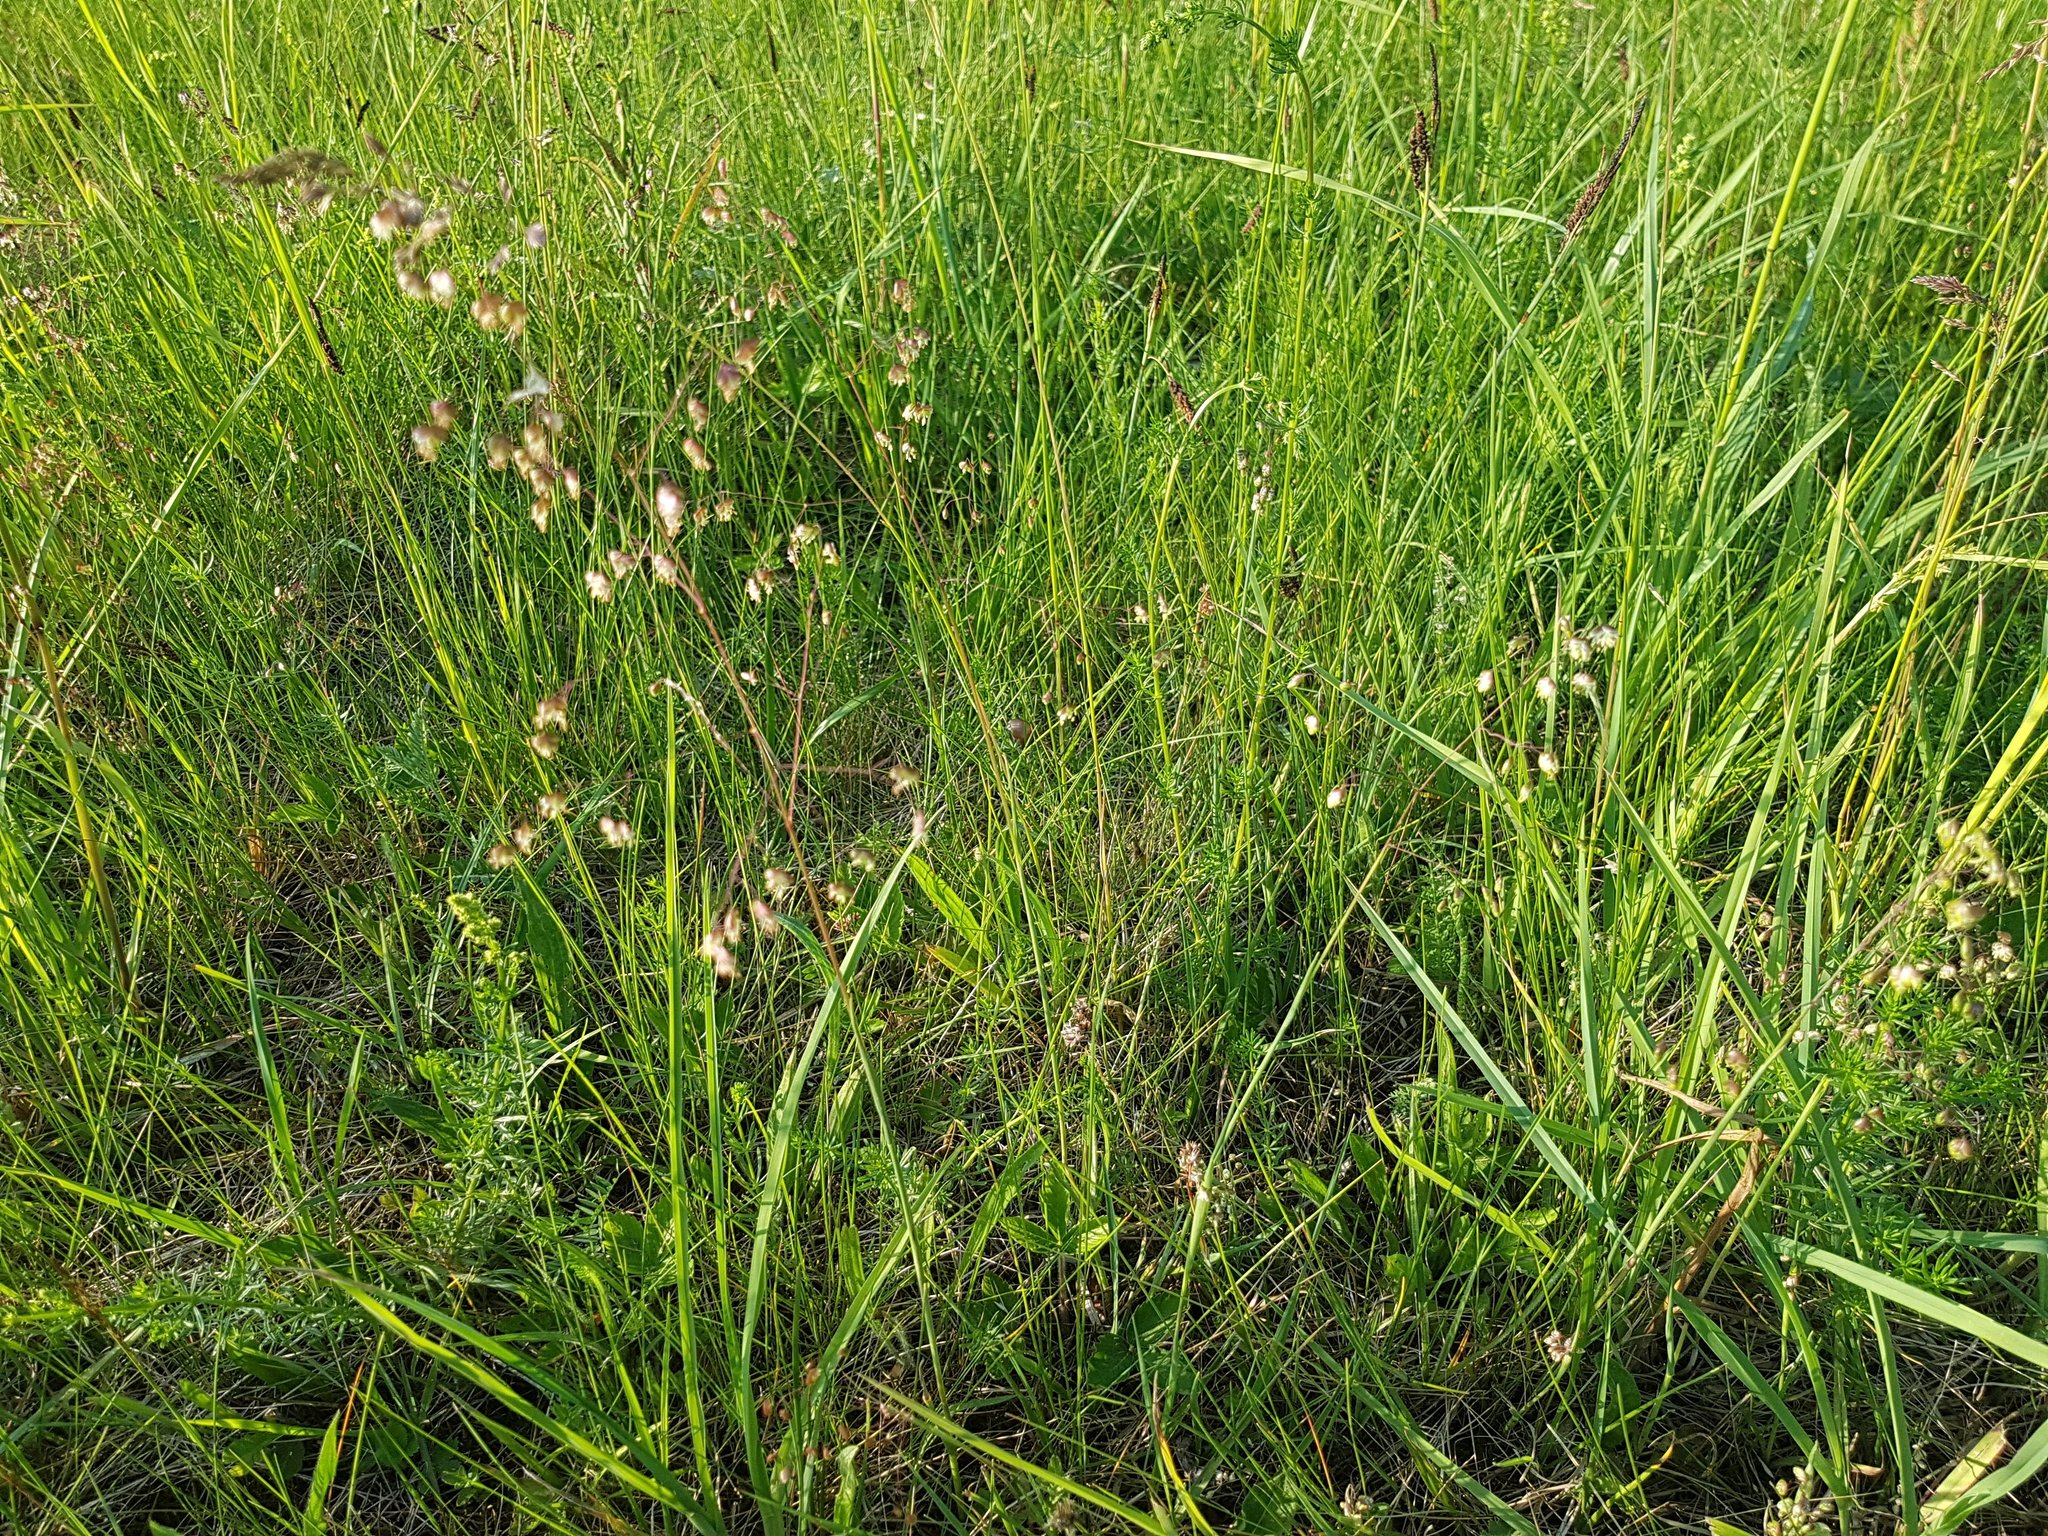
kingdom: Plantae
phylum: Tracheophyta
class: Liliopsida
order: Poales
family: Poaceae
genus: Briza
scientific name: Briza media
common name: Quaking grass
